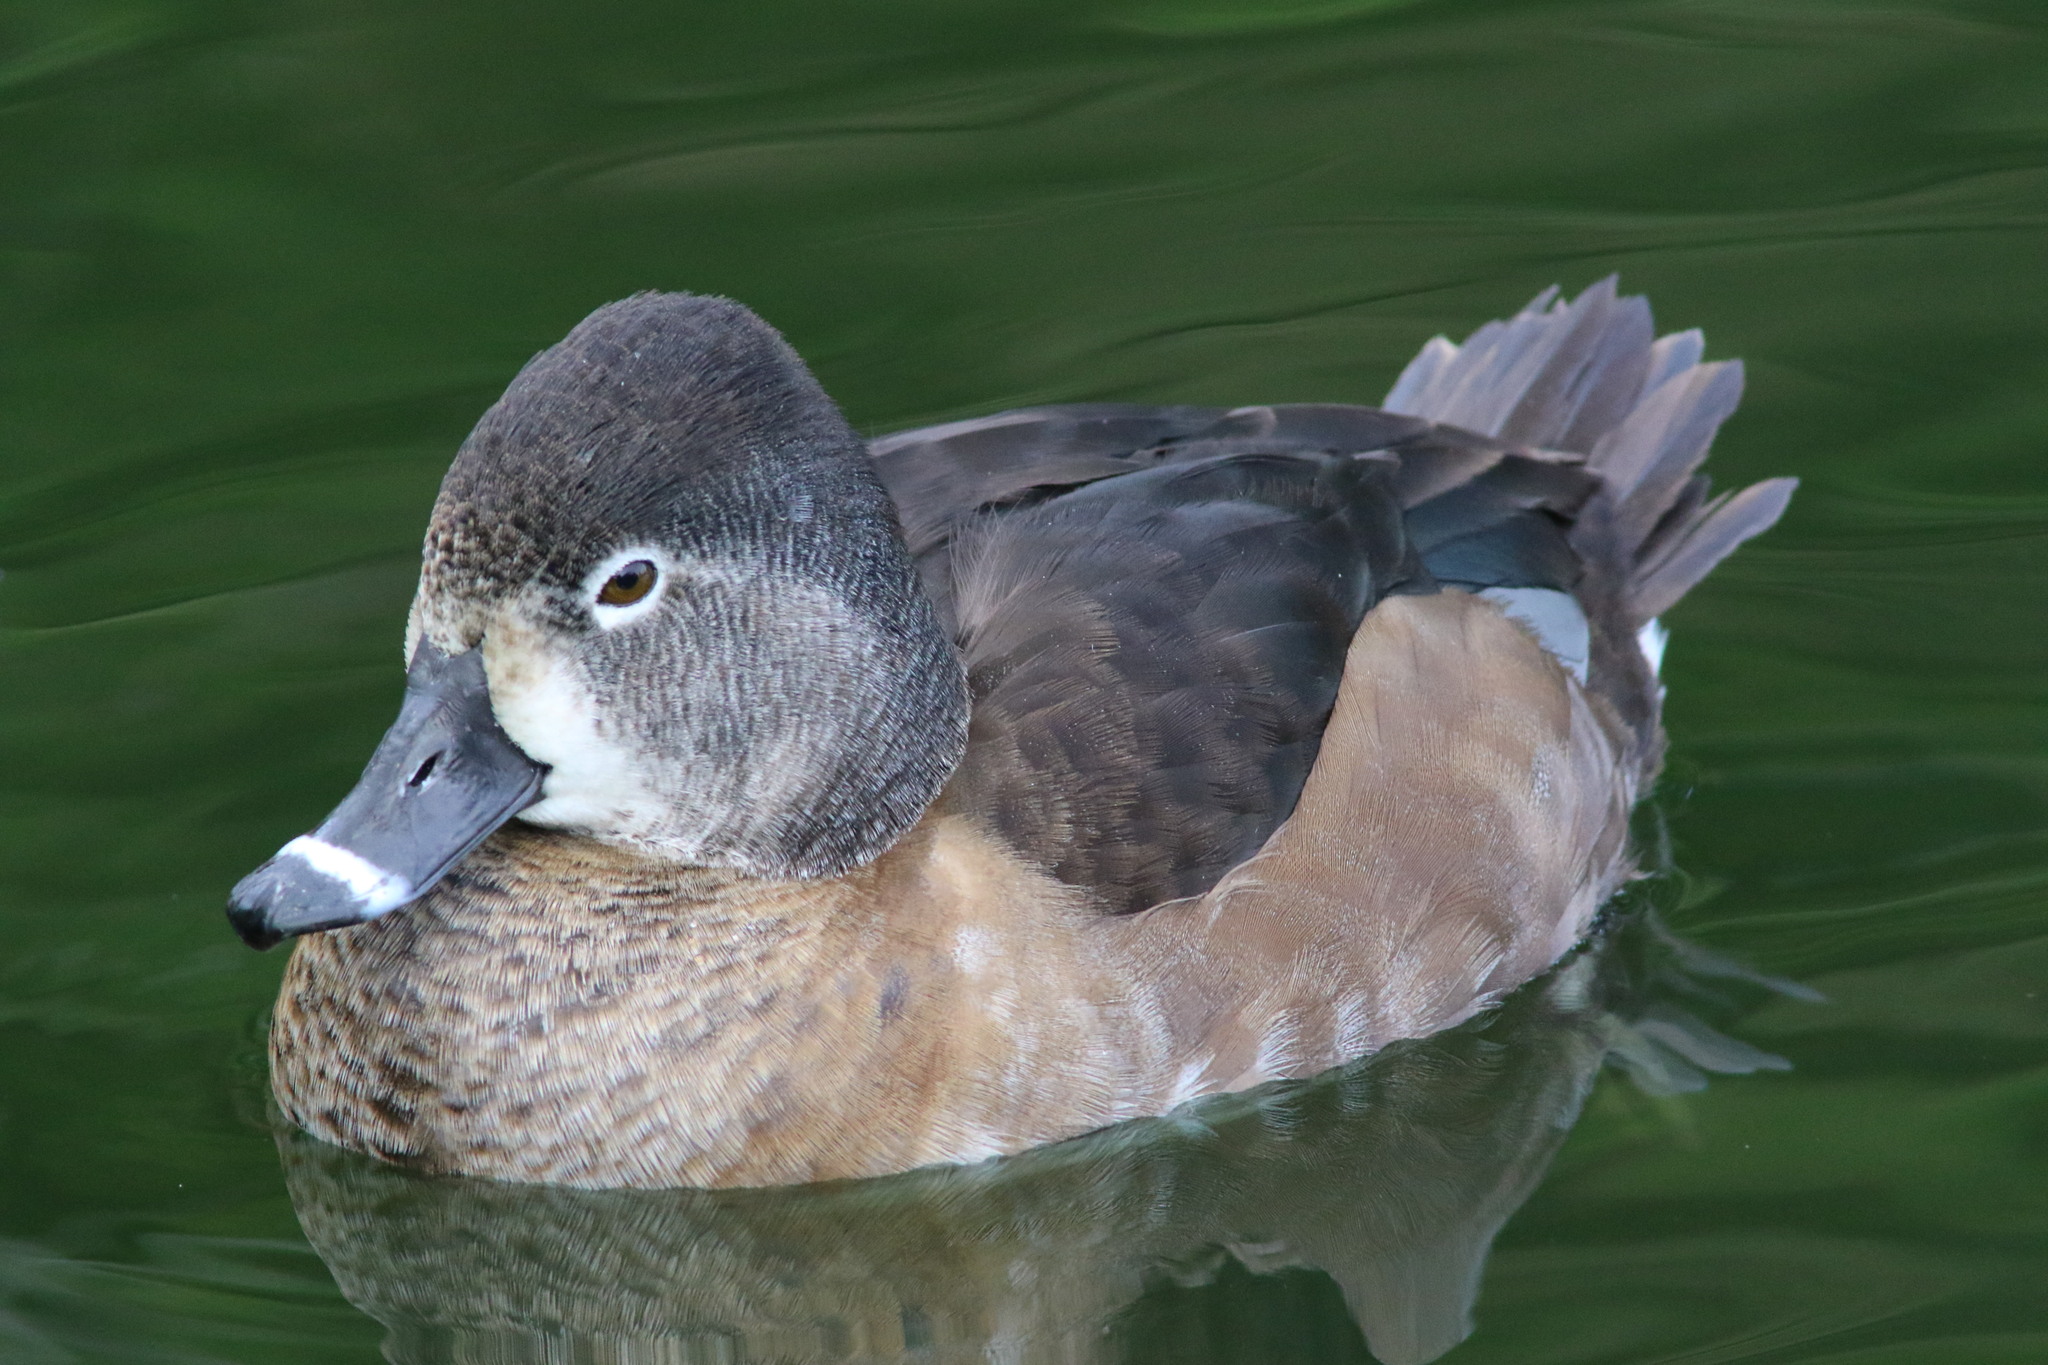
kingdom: Animalia
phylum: Chordata
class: Aves
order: Anseriformes
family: Anatidae
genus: Aythya
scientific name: Aythya collaris
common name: Ring-necked duck
